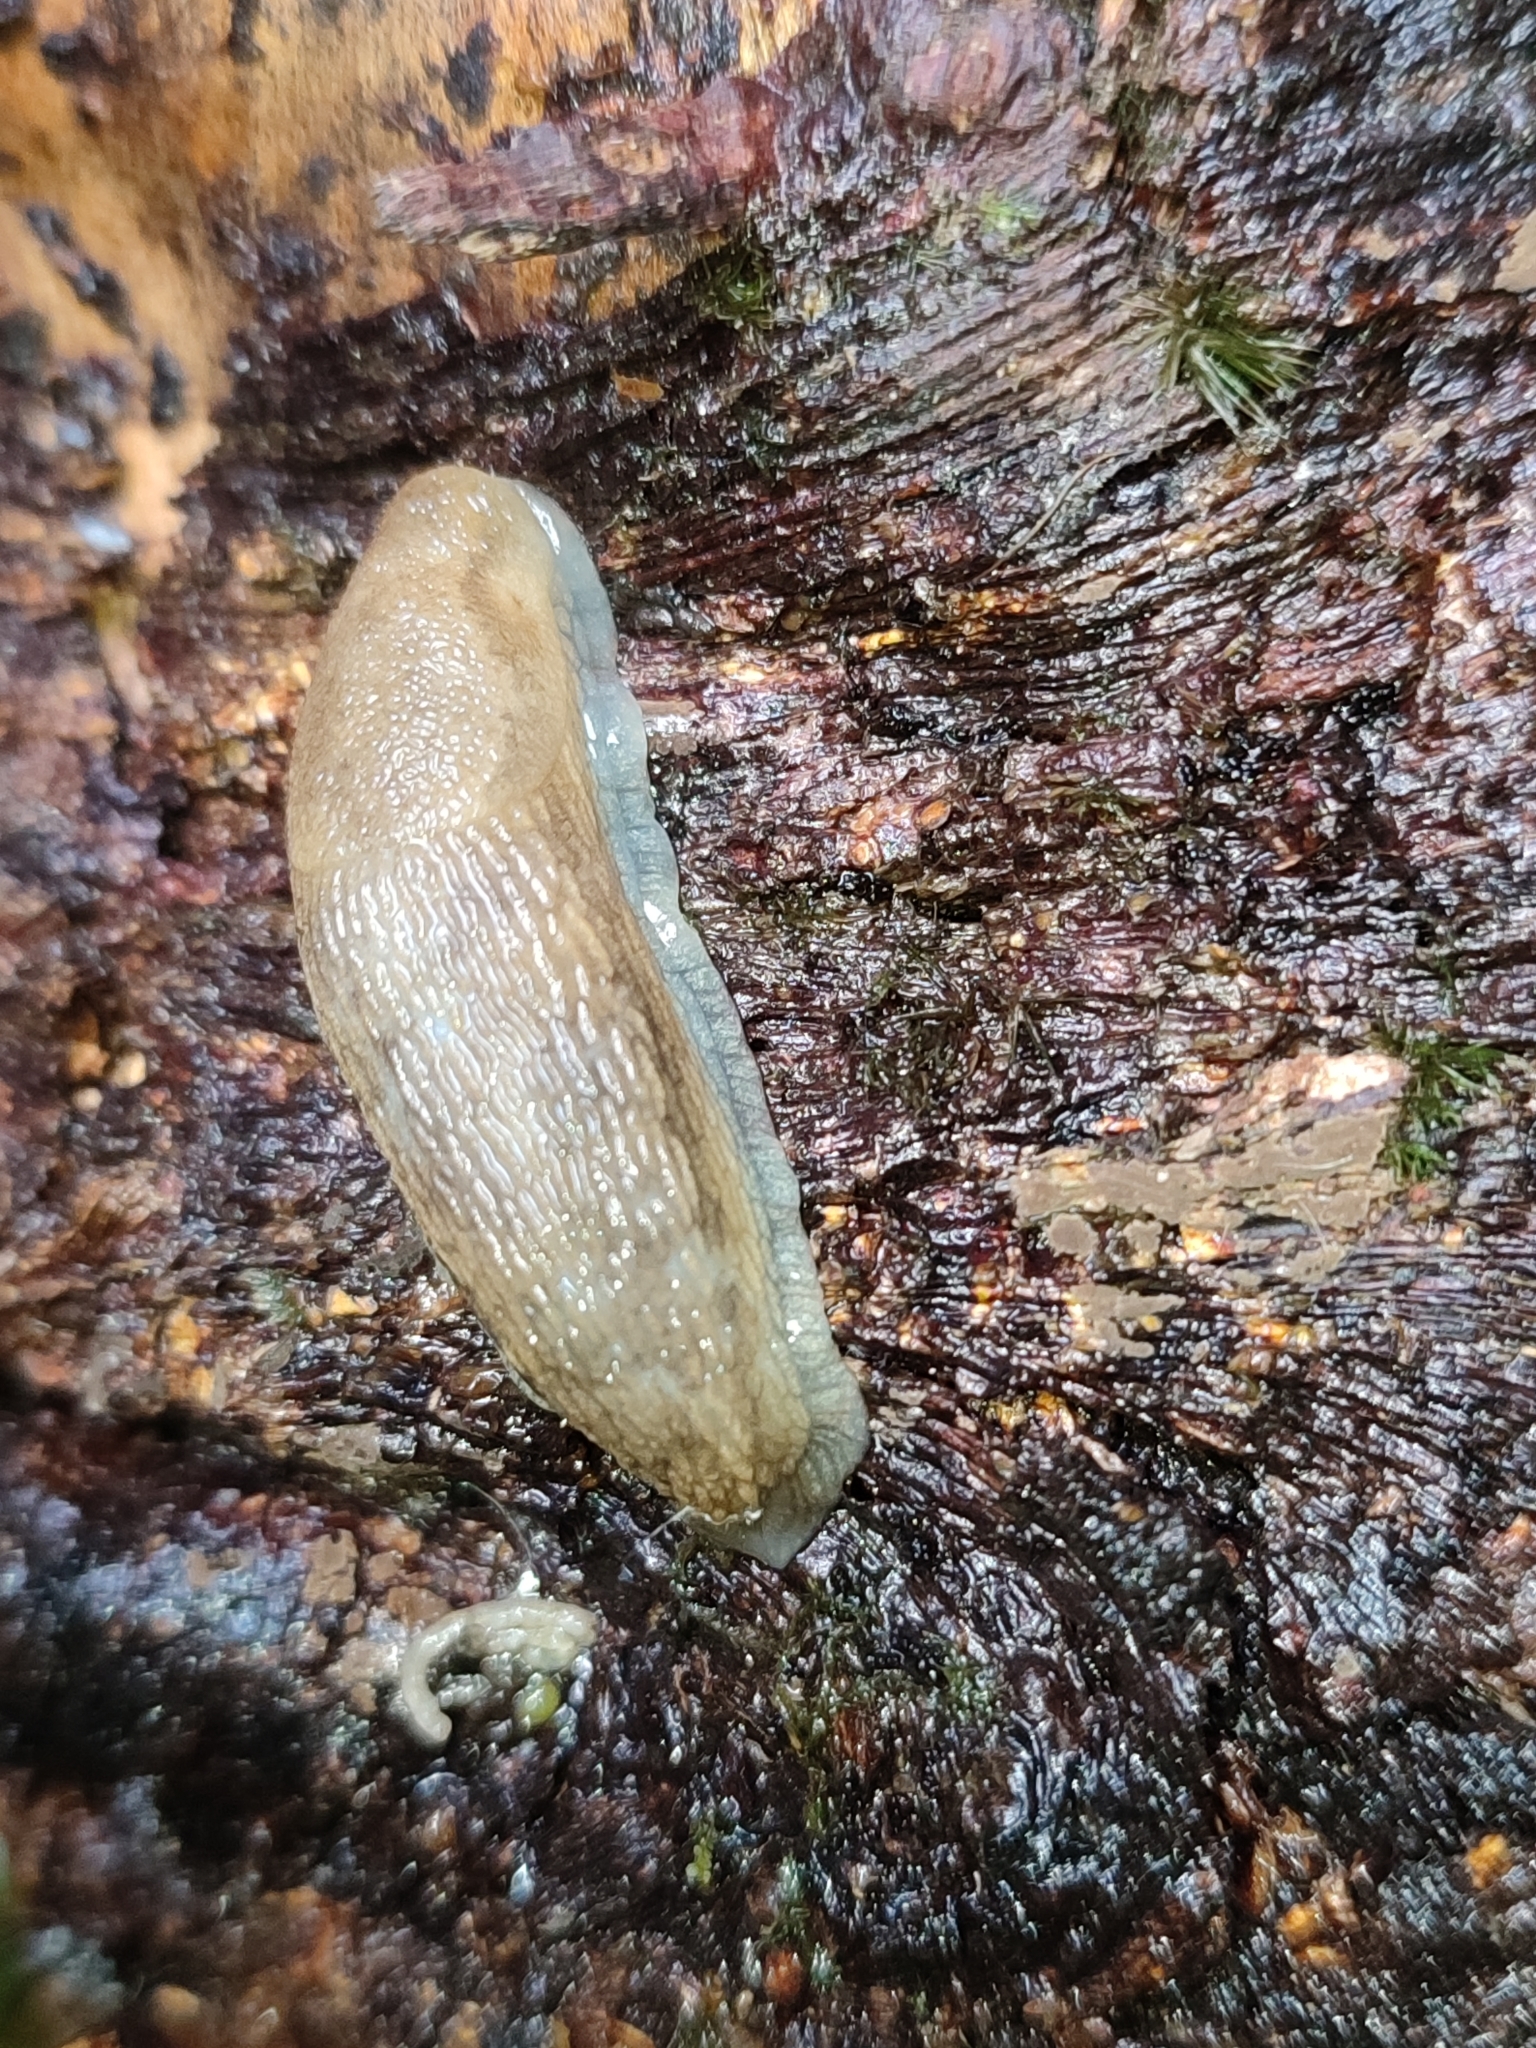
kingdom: Animalia
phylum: Mollusca
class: Gastropoda
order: Stylommatophora
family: Arionidae
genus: Arion
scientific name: Arion fuscus
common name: Northern dusky slug
